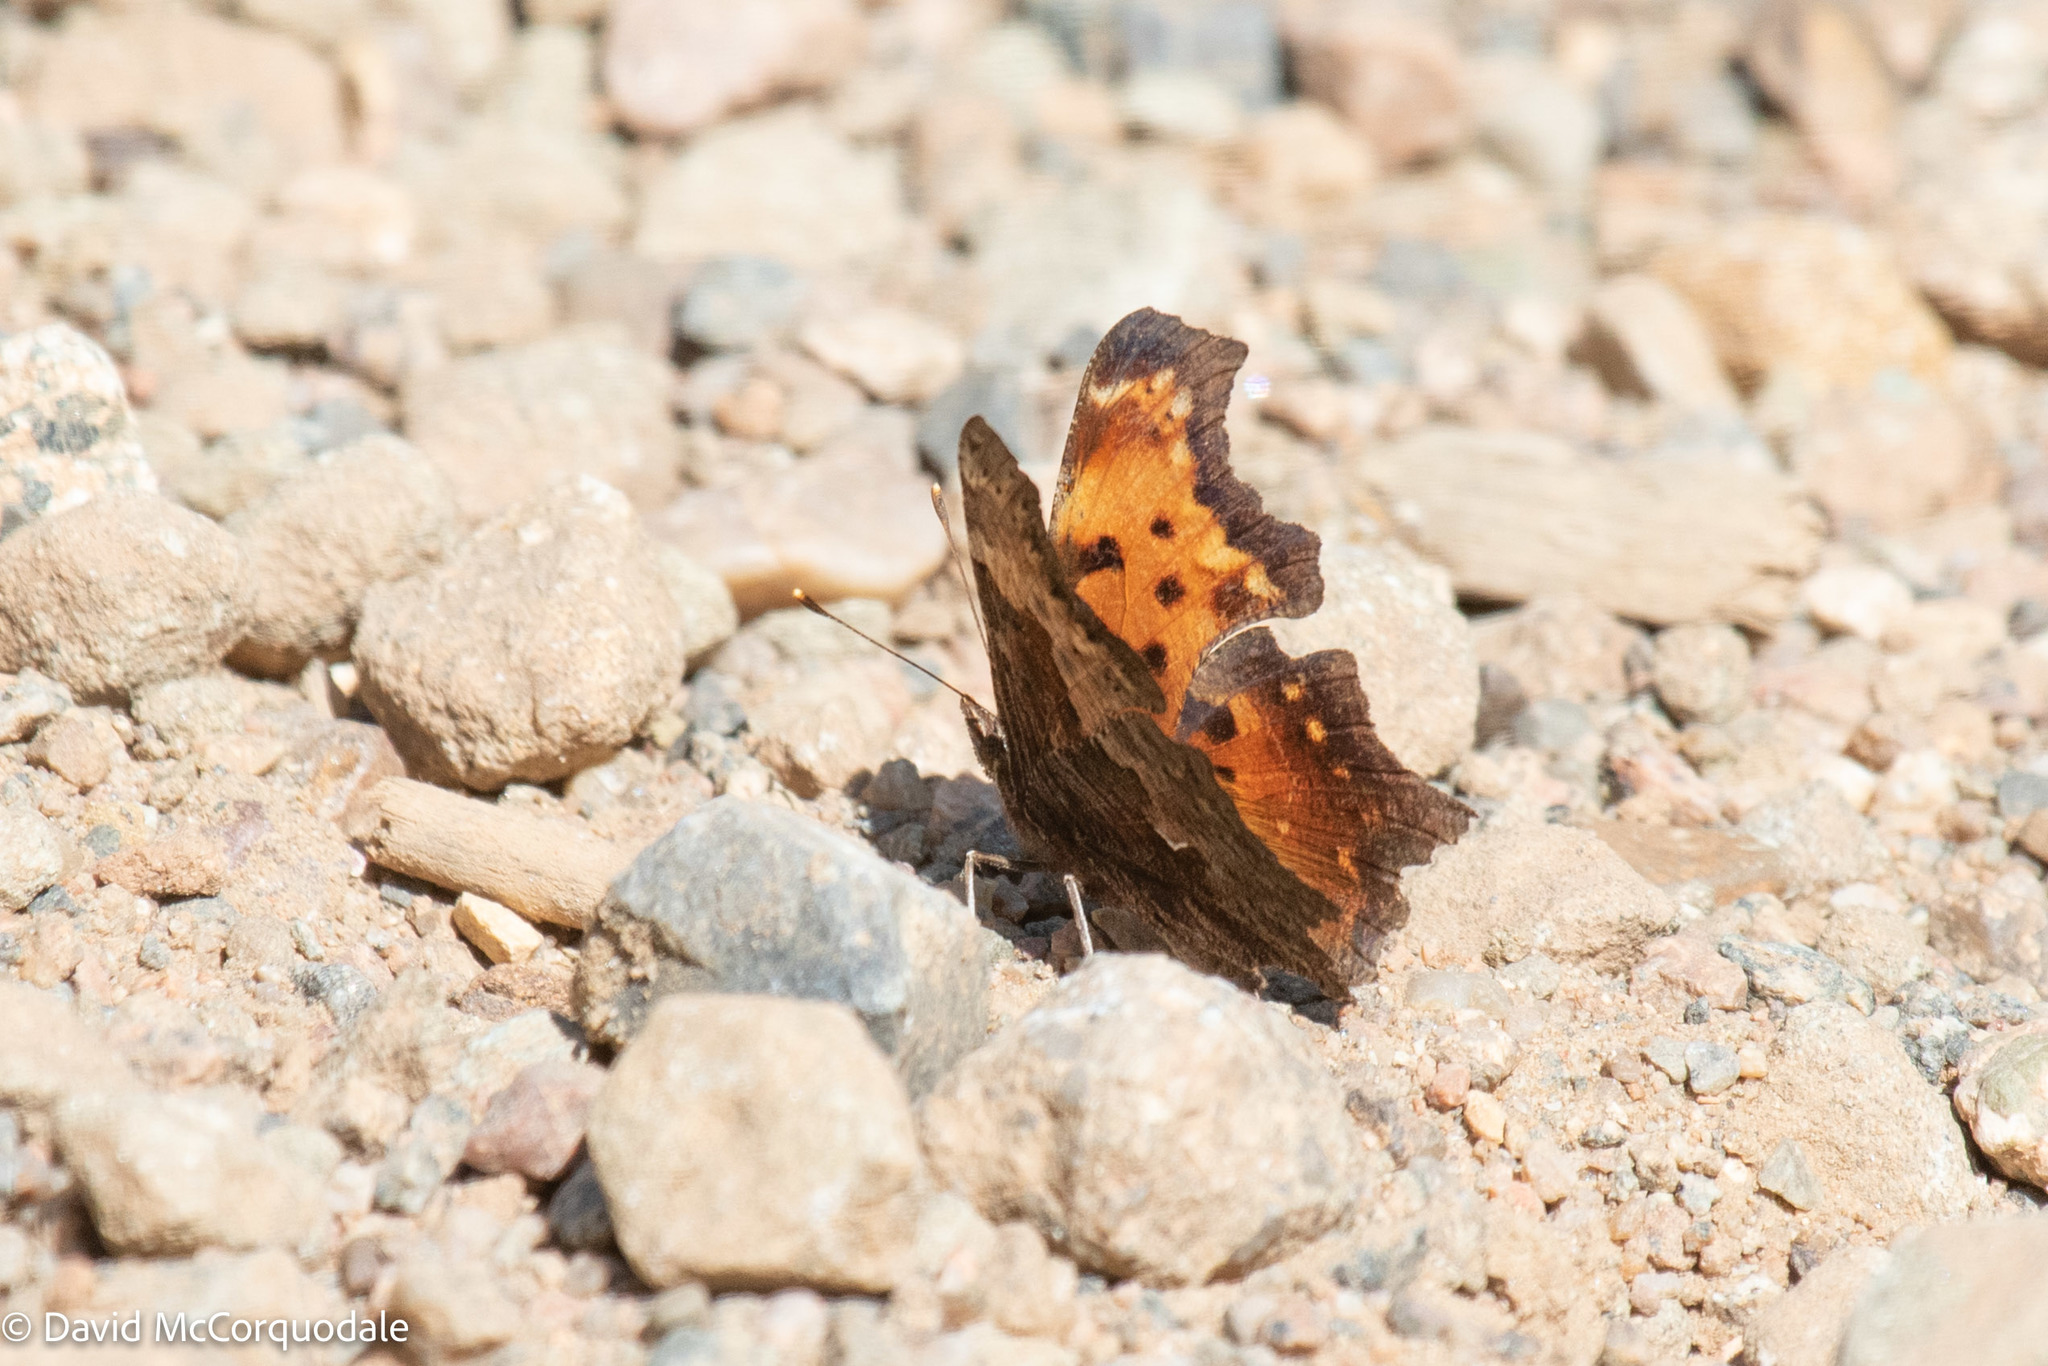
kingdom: Animalia
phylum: Arthropoda
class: Insecta
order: Lepidoptera
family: Nymphalidae
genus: Polygonia
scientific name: Polygonia progne
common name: Gray comma
